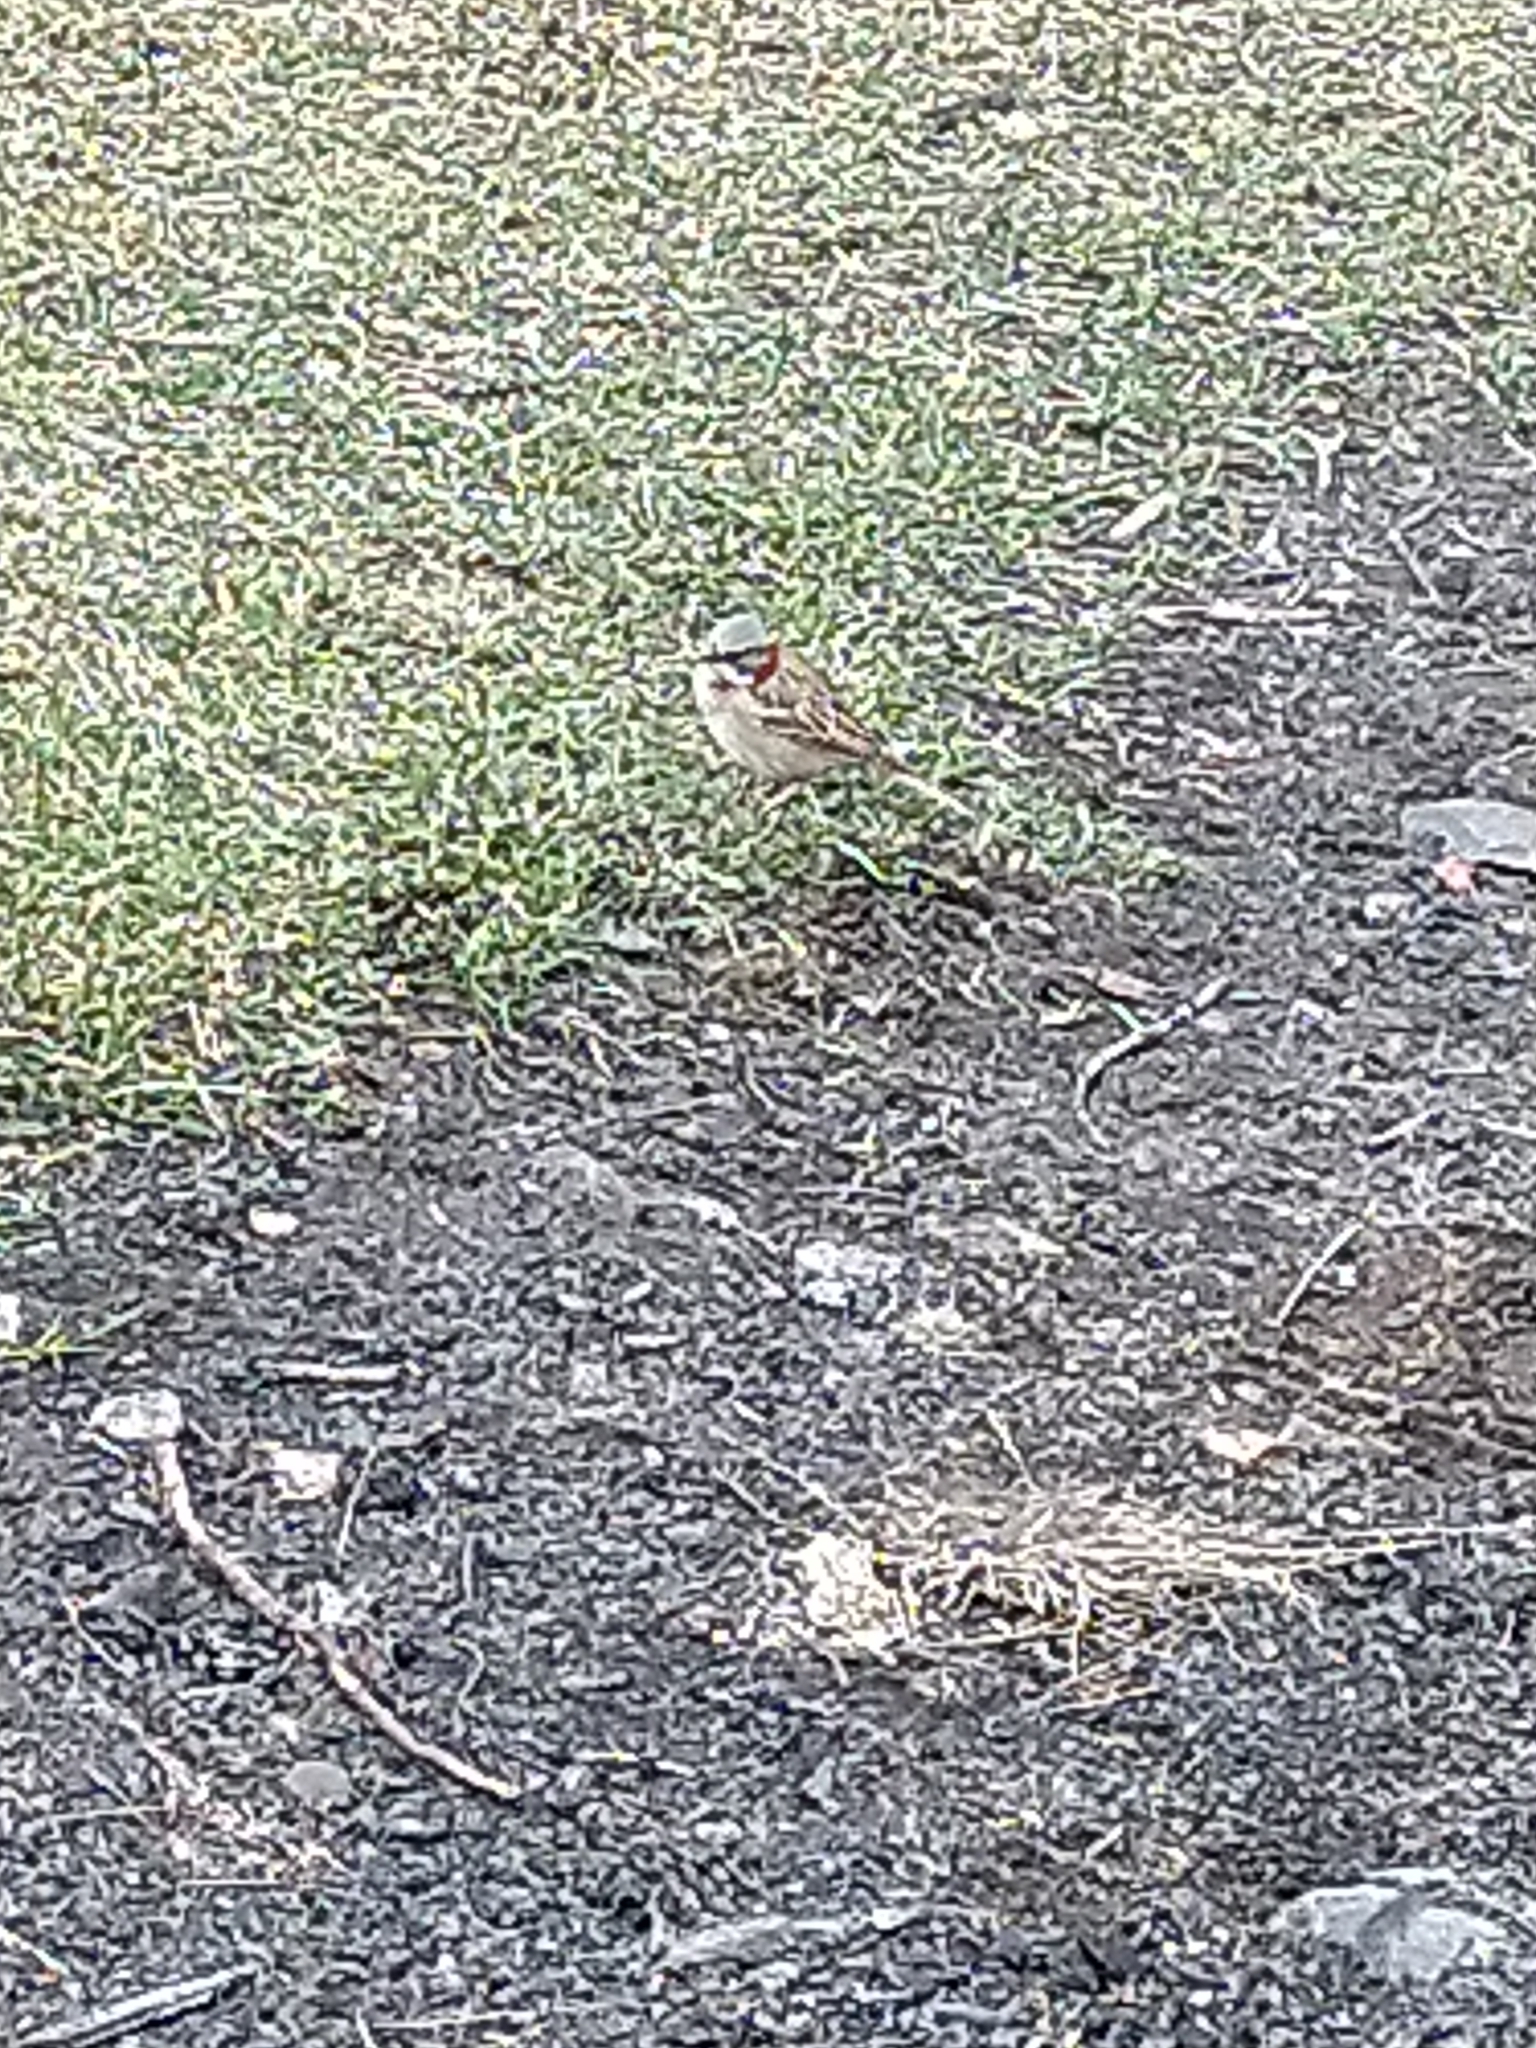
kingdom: Animalia
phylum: Chordata
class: Aves
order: Passeriformes
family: Passerellidae
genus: Zonotrichia
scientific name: Zonotrichia capensis
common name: Rufous-collared sparrow
